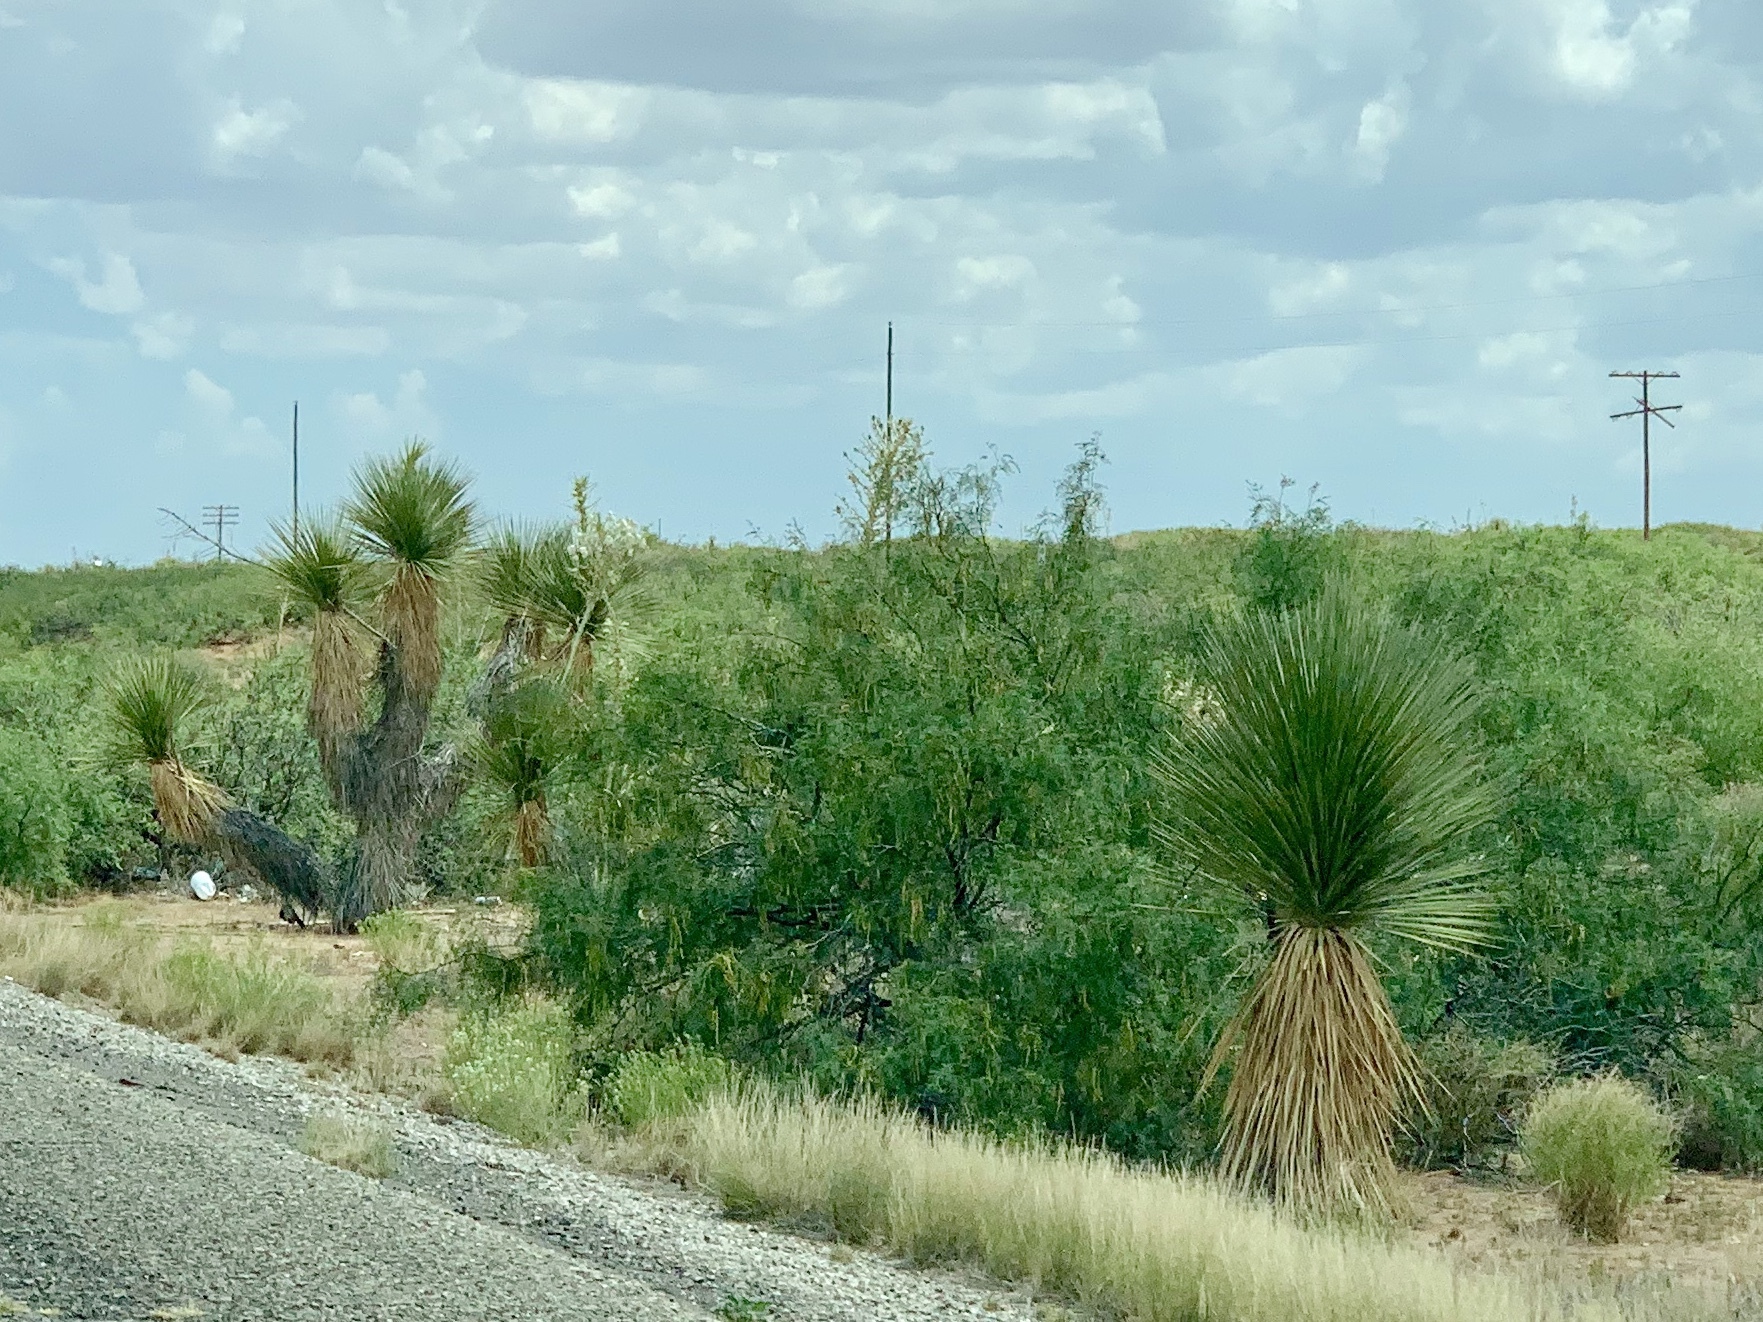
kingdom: Plantae
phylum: Tracheophyta
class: Liliopsida
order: Asparagales
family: Asparagaceae
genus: Yucca
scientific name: Yucca elata
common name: Palmella
